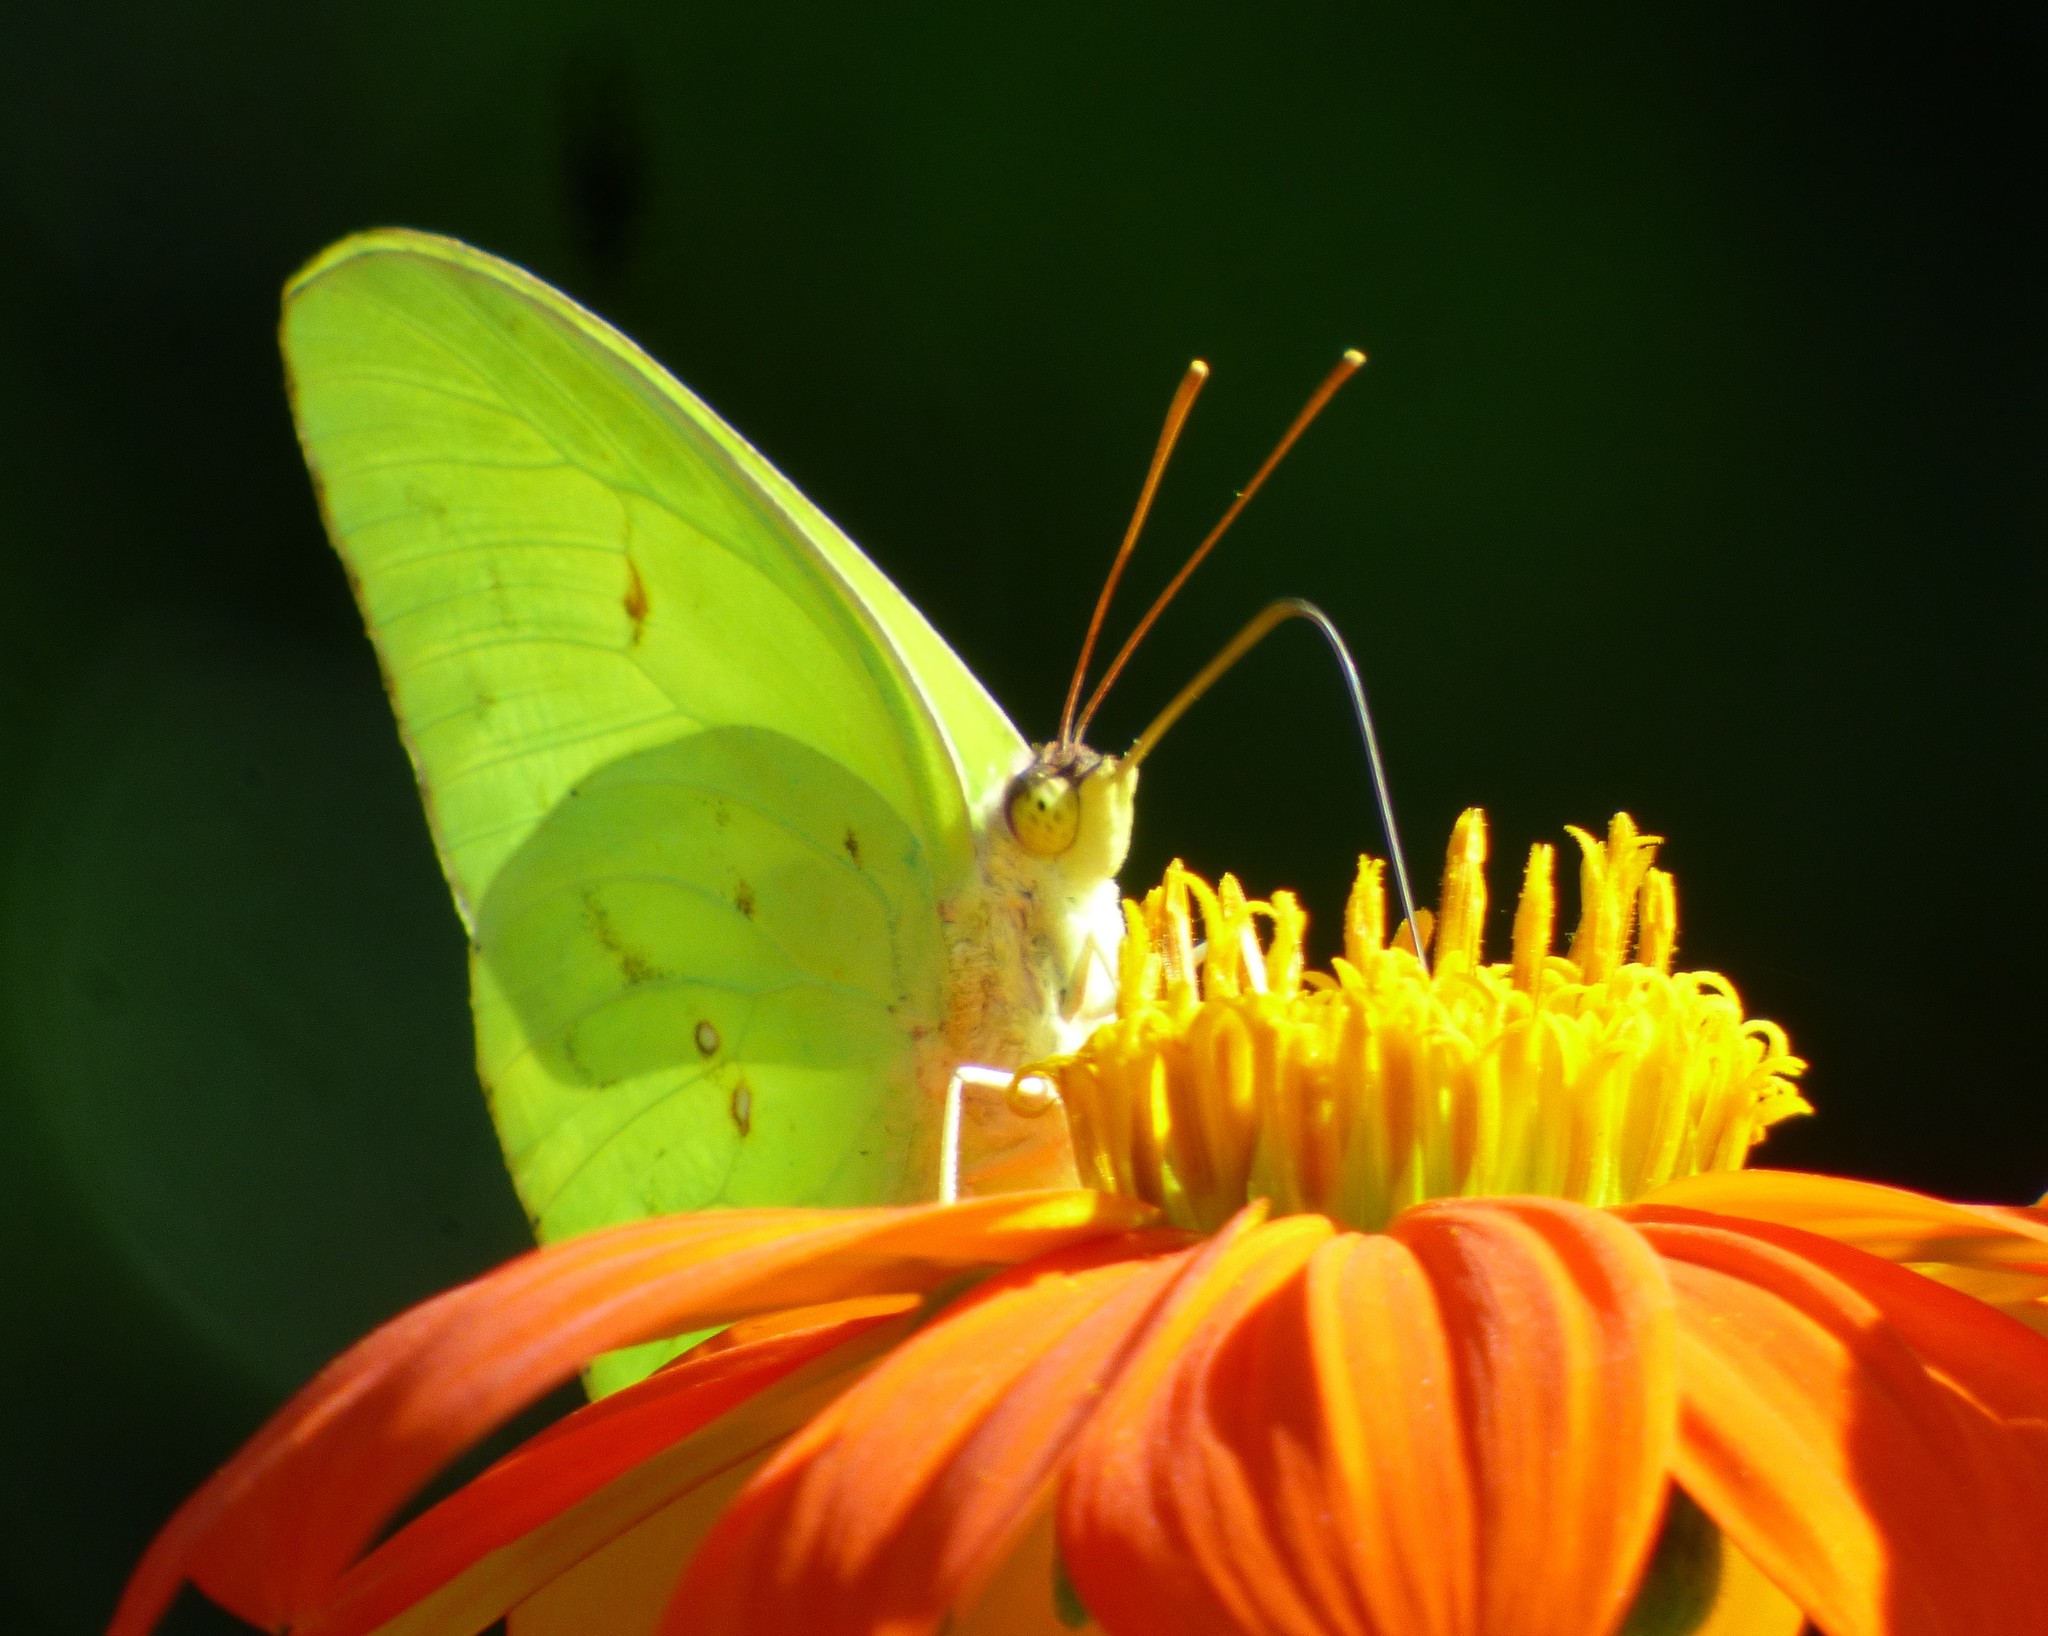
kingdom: Animalia
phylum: Arthropoda
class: Insecta
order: Lepidoptera
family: Pieridae
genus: Phoebis
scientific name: Phoebis sennae
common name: Cloudless sulphur
